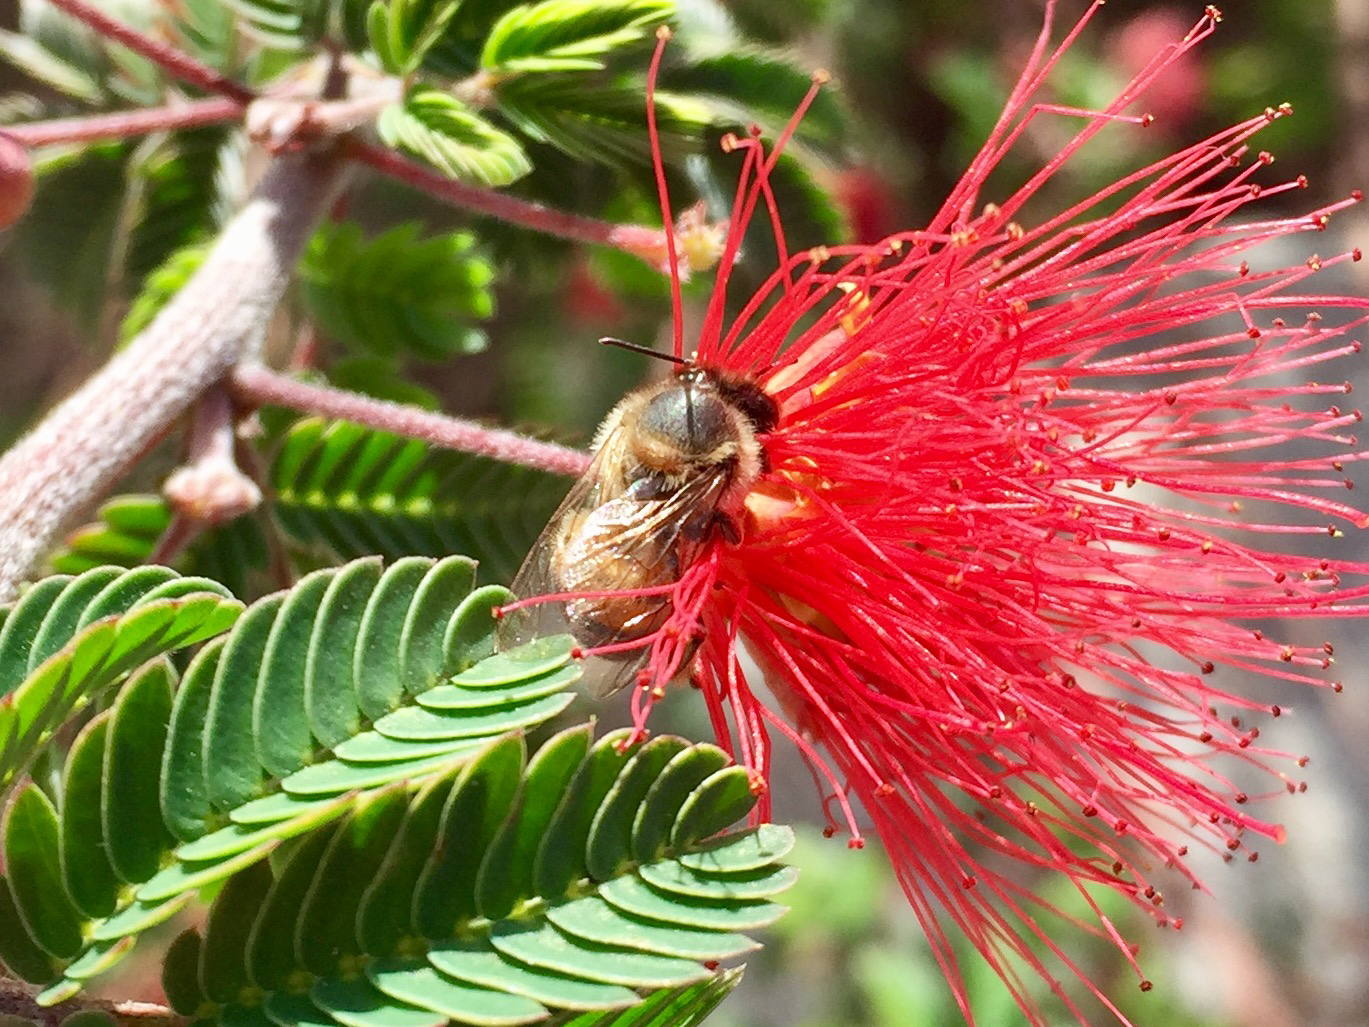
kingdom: Animalia
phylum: Arthropoda
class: Insecta
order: Hymenoptera
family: Apidae
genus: Apis
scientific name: Apis mellifera
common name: Honey bee
